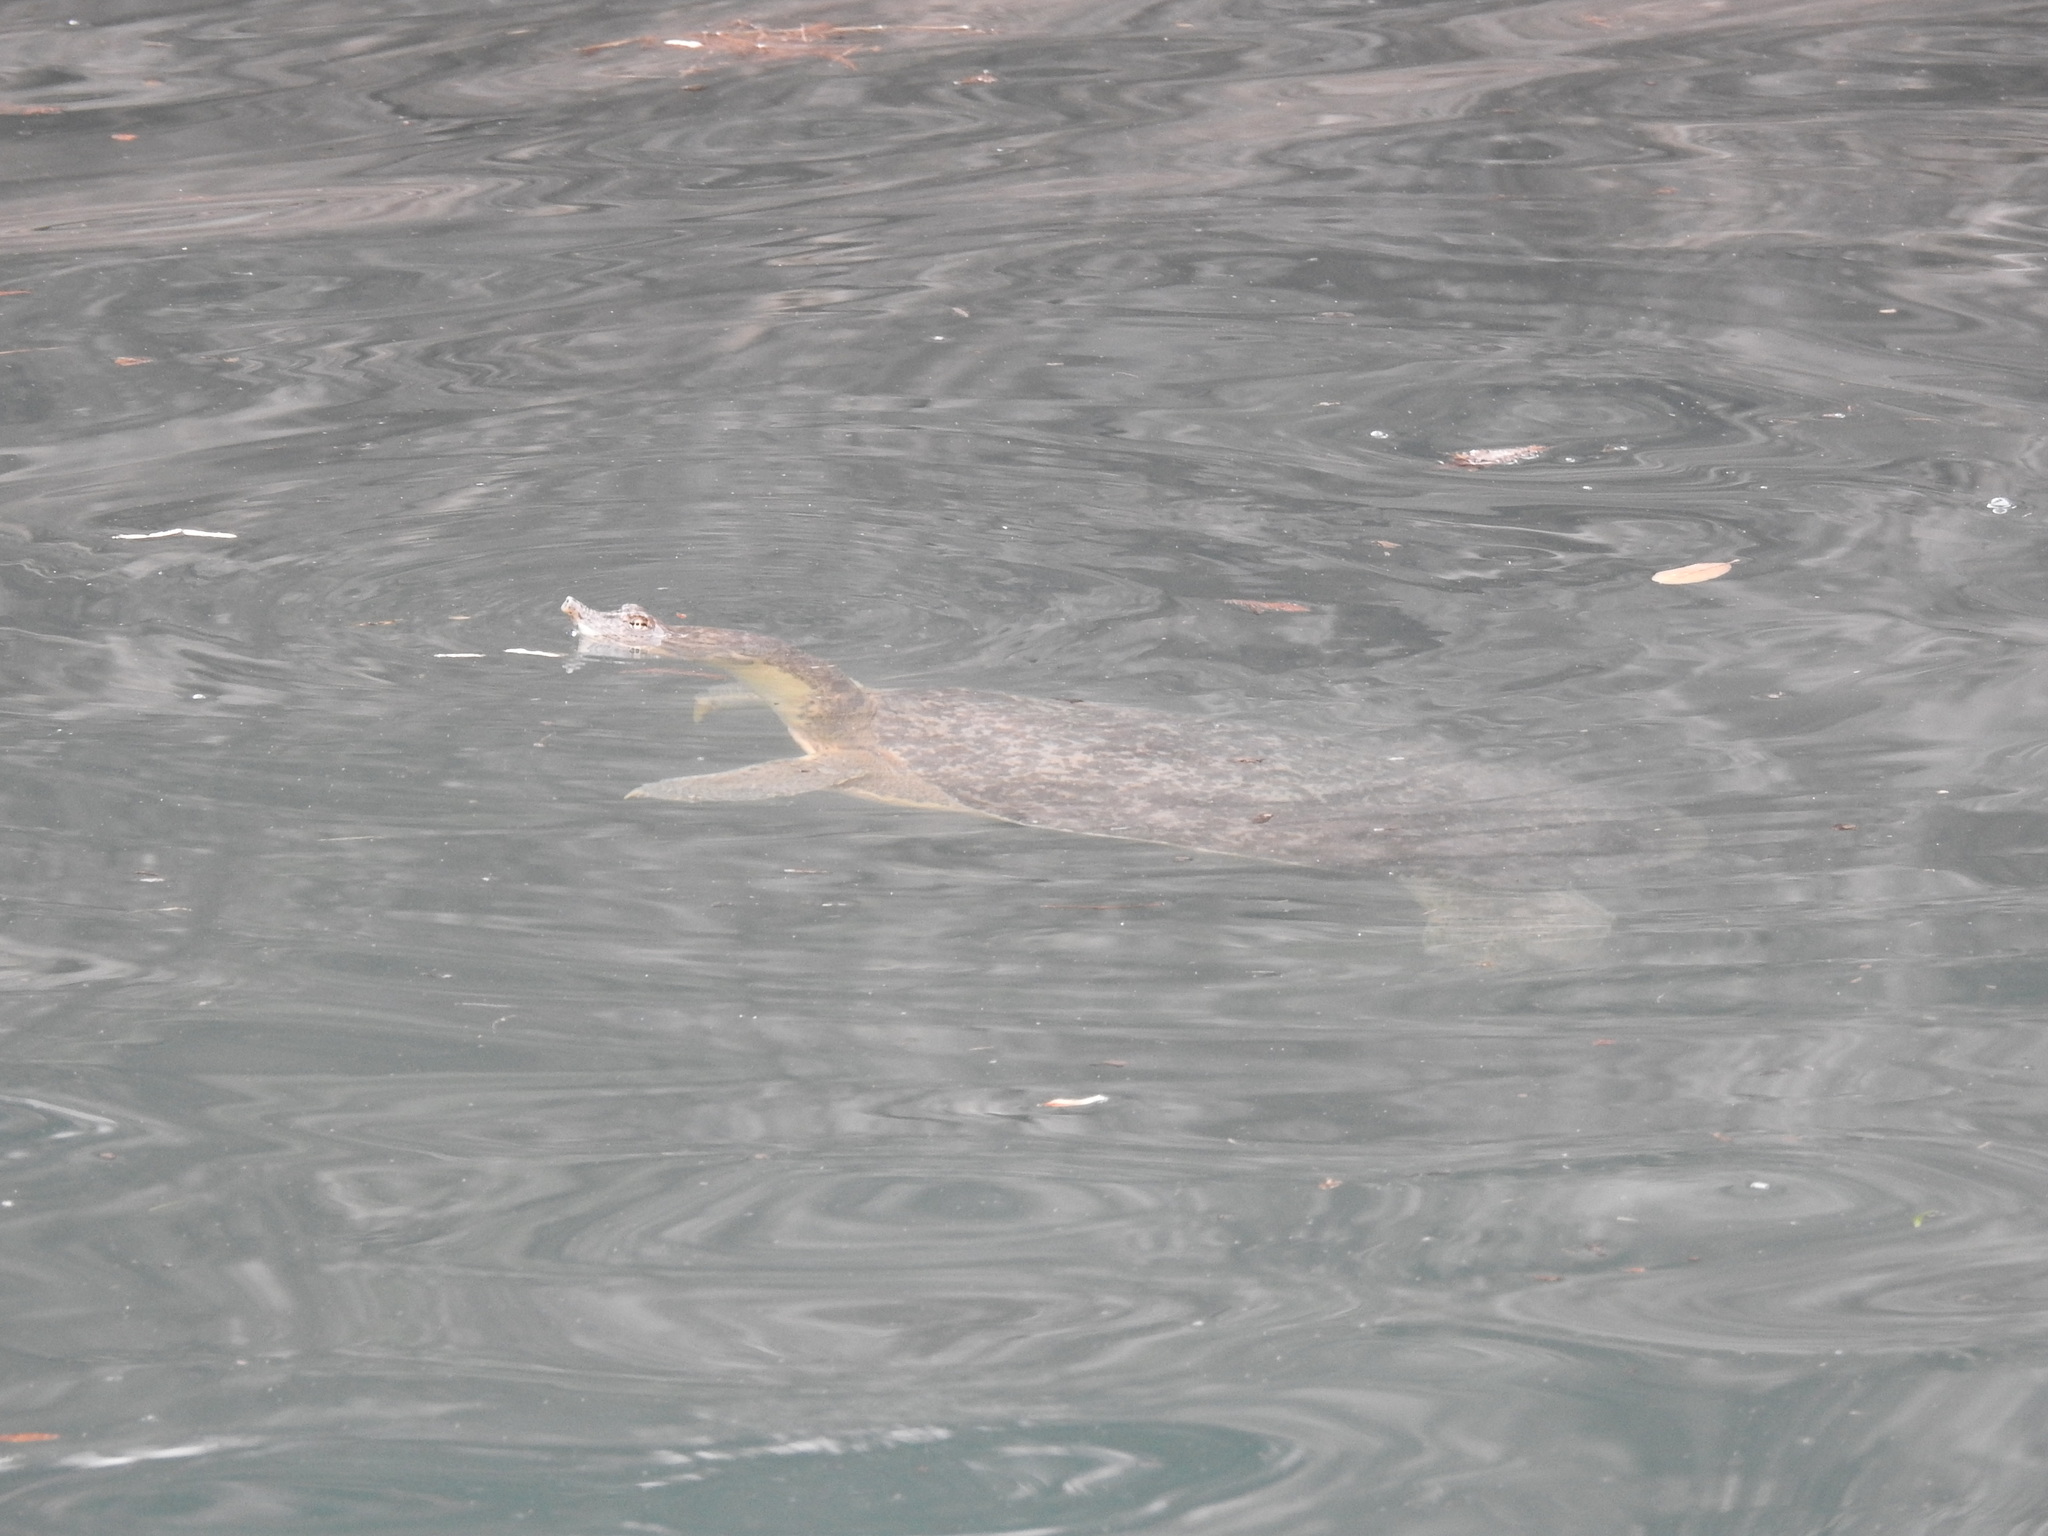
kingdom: Animalia
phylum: Chordata
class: Testudines
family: Trionychidae
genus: Apalone
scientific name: Apalone spinifera
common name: Spiny softshell turtle
